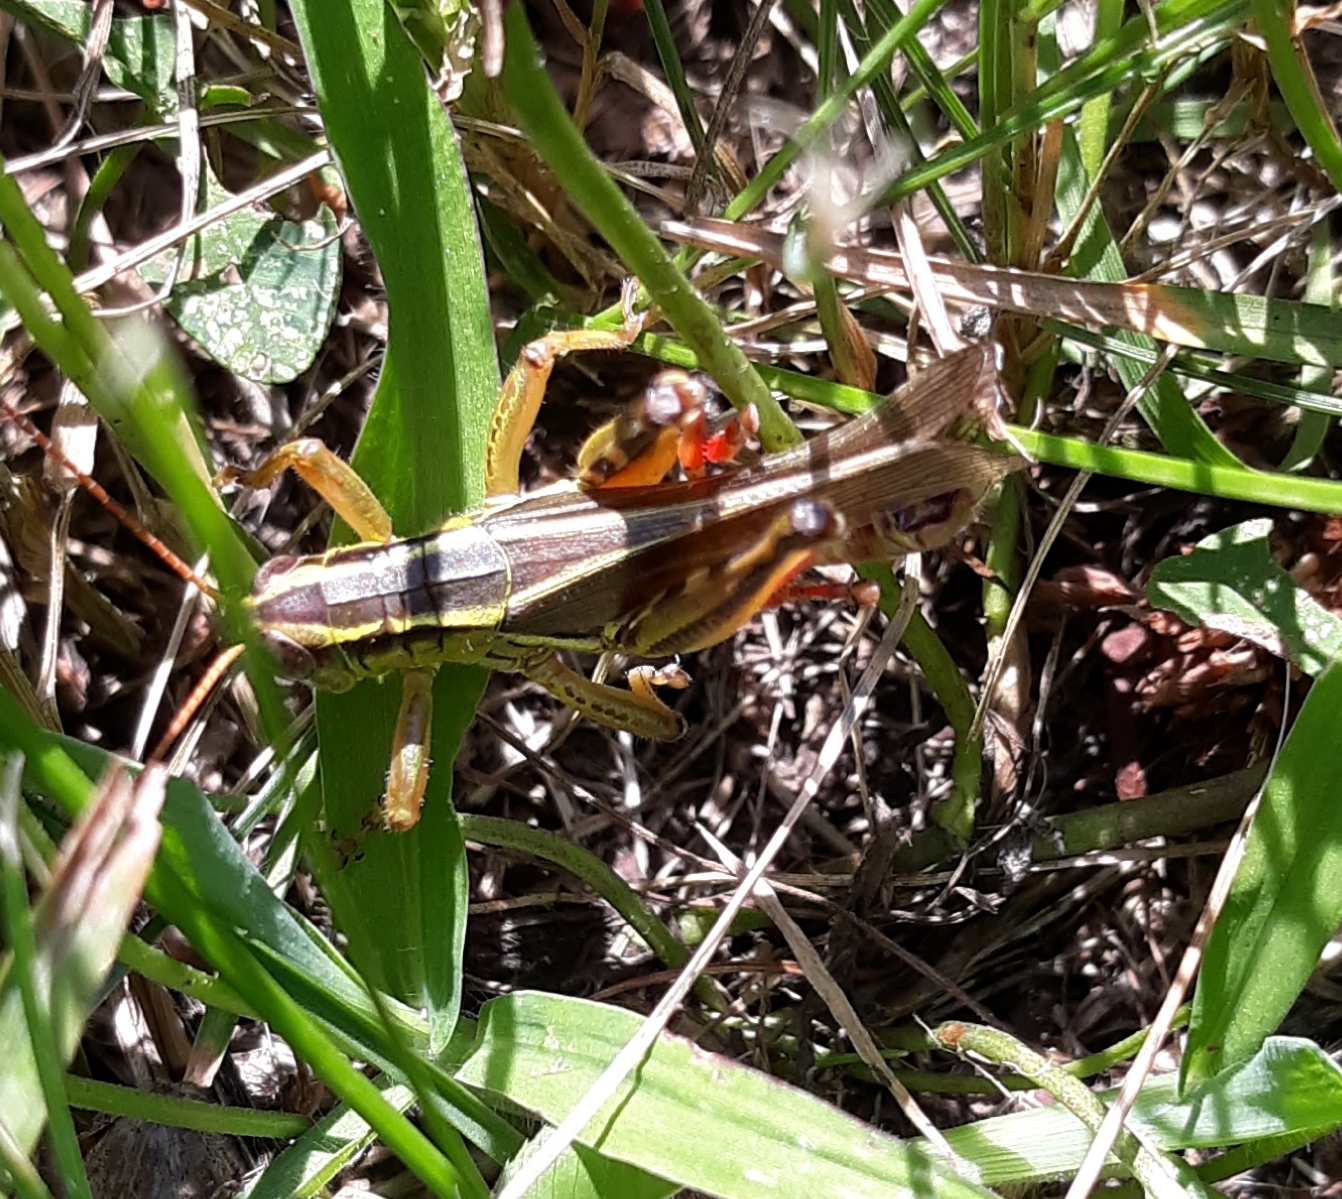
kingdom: Animalia
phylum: Arthropoda
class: Insecta
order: Orthoptera
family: Acrididae
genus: Melanoplus
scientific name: Melanoplus bivittatus
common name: Two-striped grasshopper
